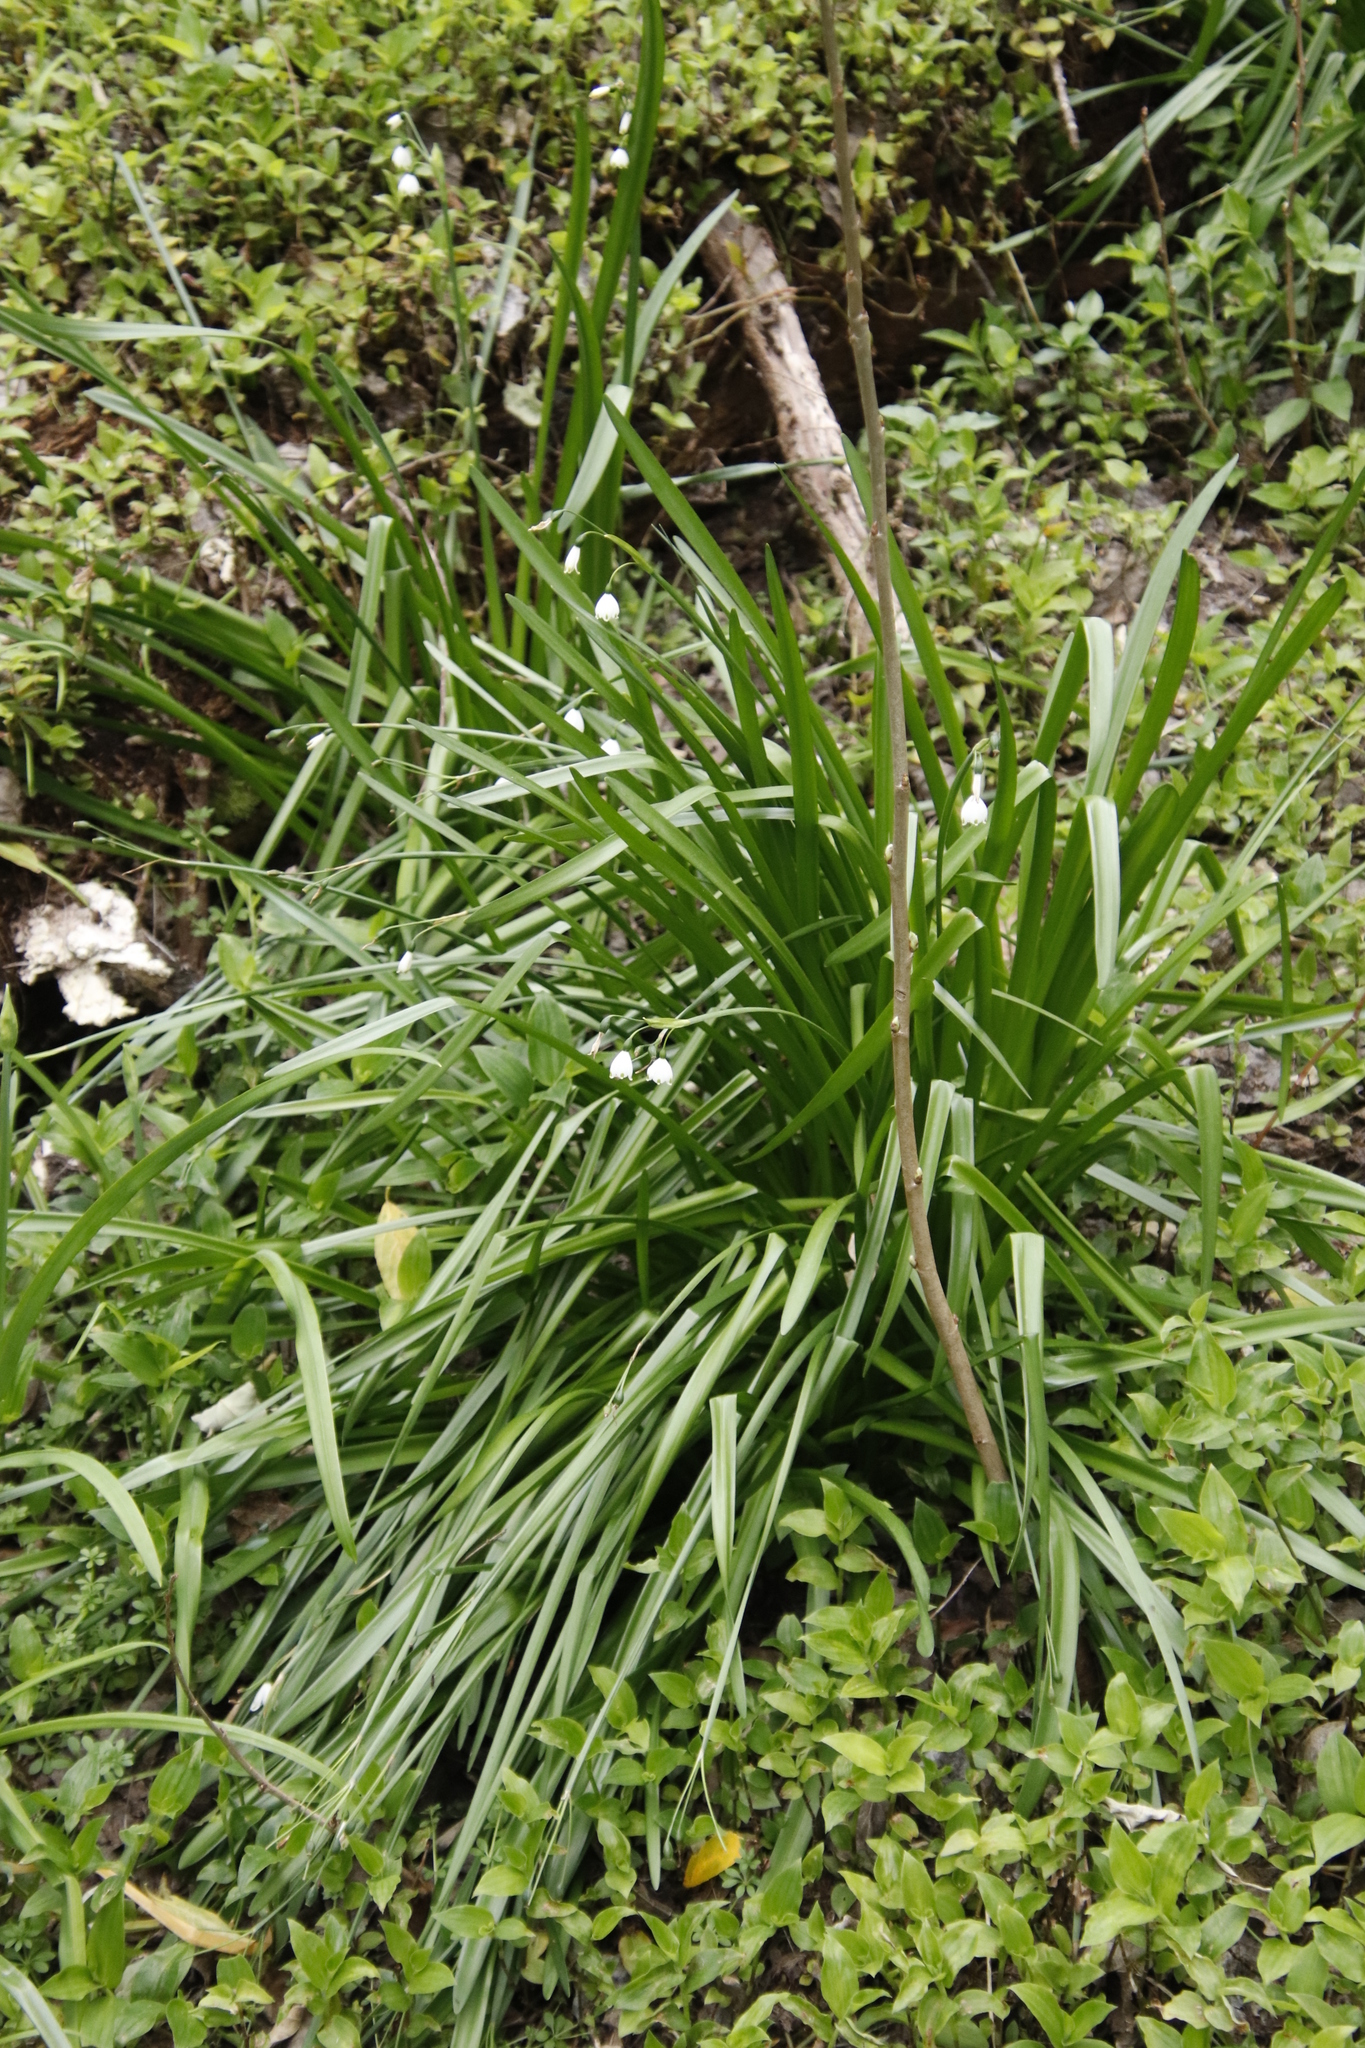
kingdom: Plantae
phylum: Tracheophyta
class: Liliopsida
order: Asparagales
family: Amaryllidaceae
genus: Leucojum
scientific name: Leucojum aestivum
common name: Summer snowflake
